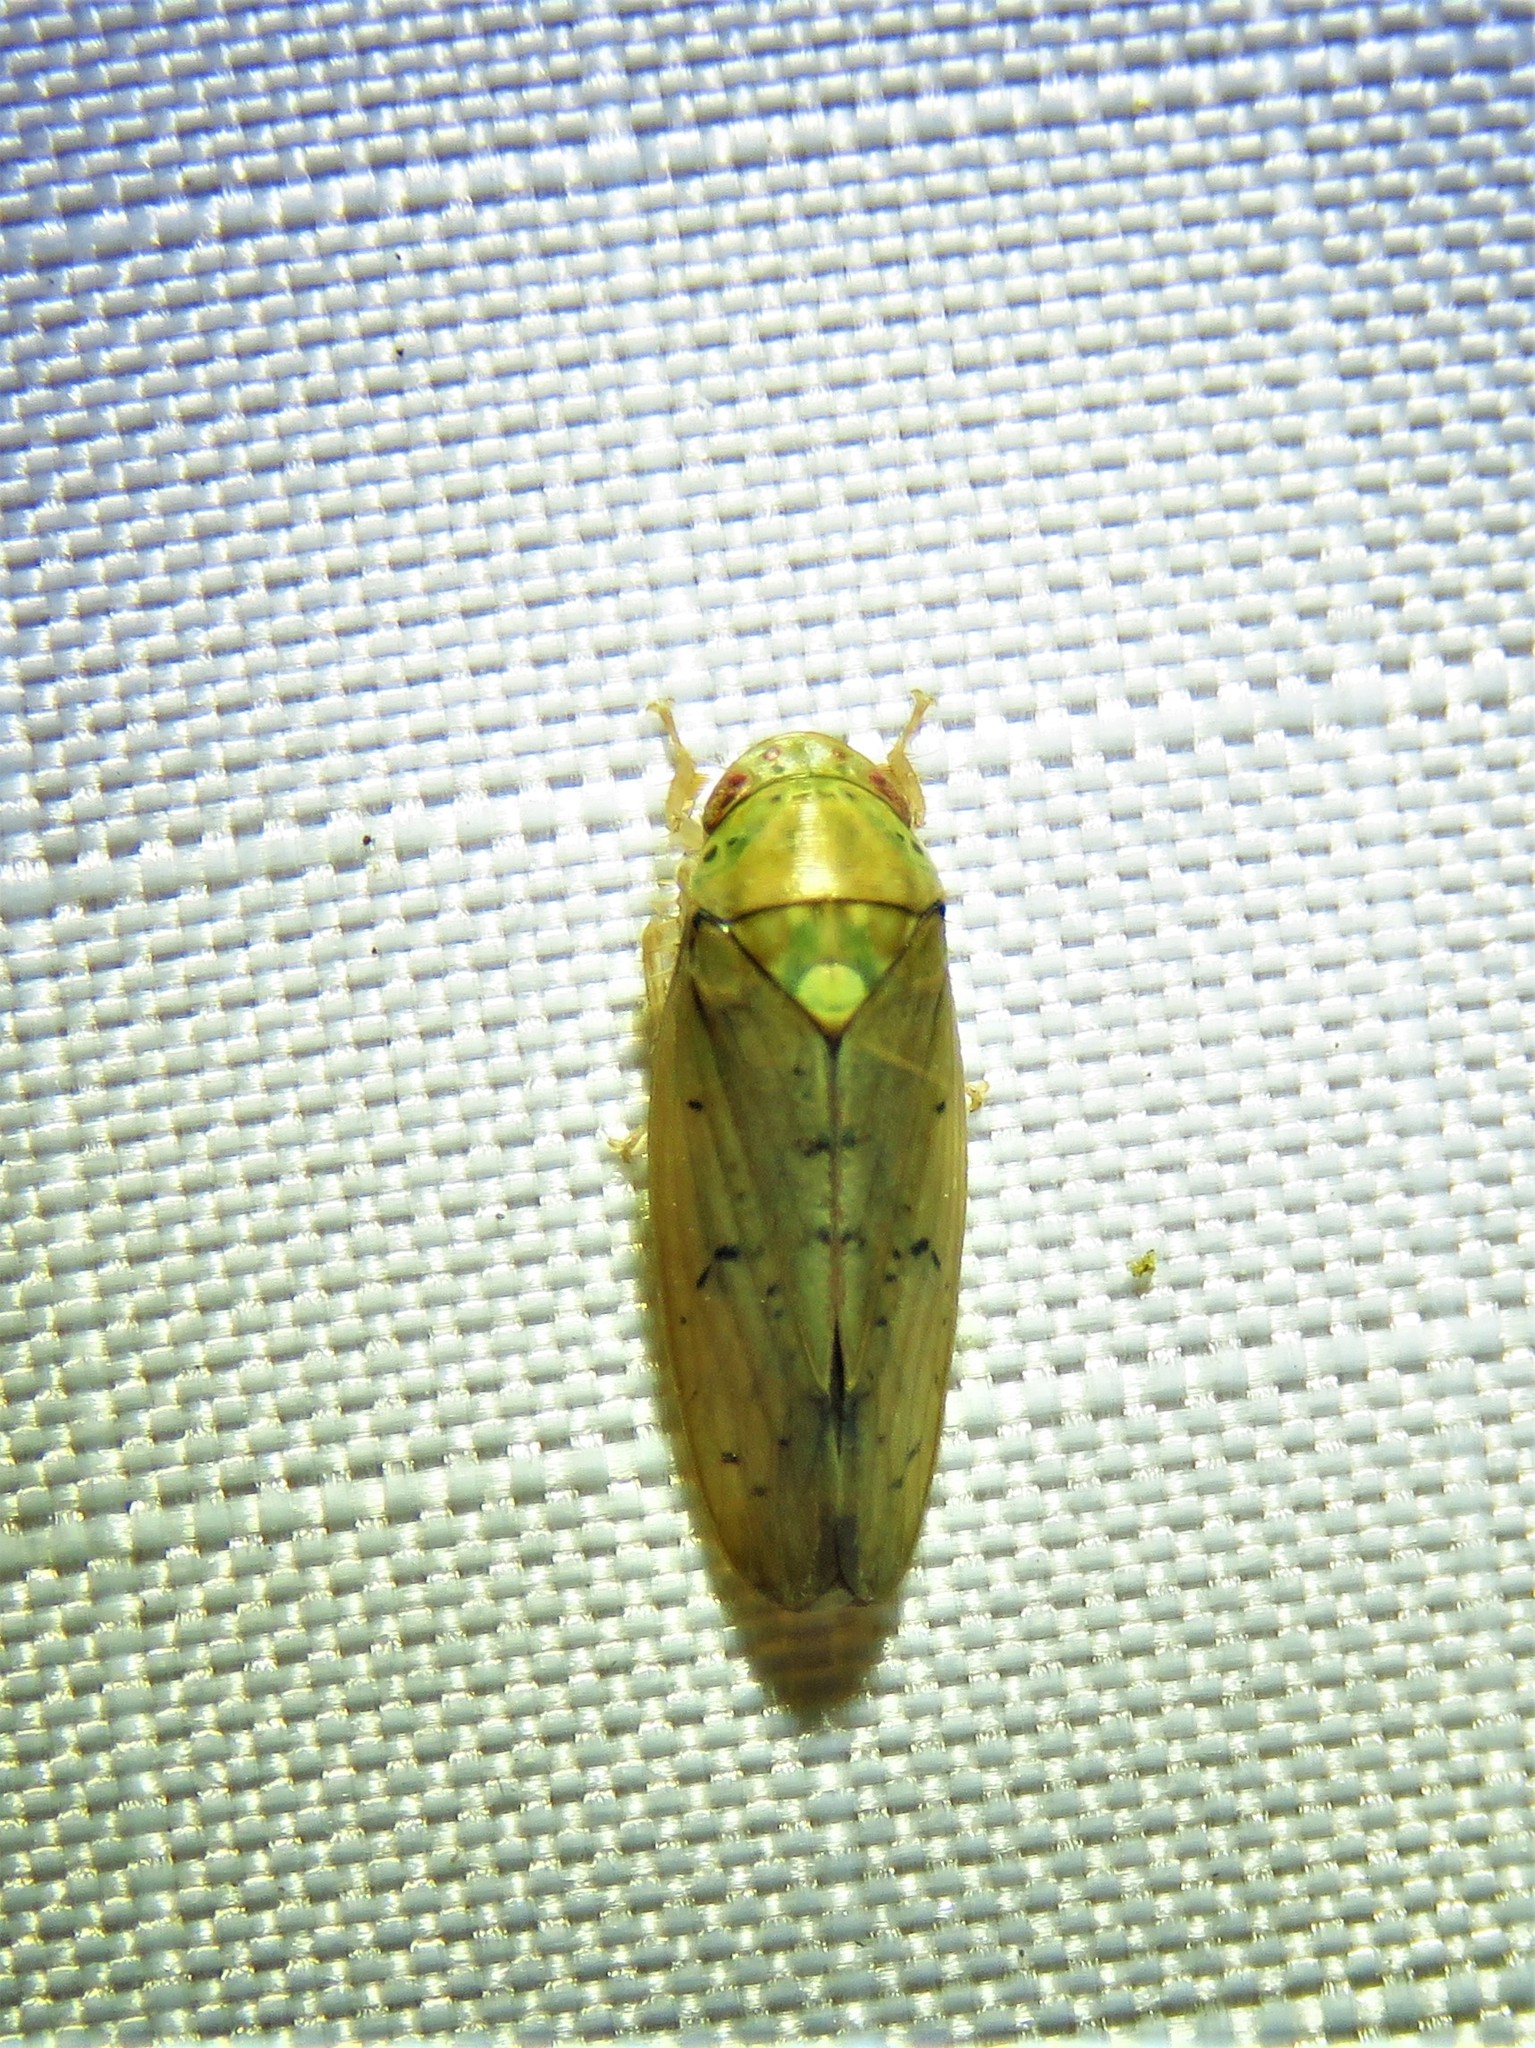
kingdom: Animalia
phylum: Arthropoda
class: Insecta
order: Hemiptera
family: Cicadellidae
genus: Ponana
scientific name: Ponana quadralaba
